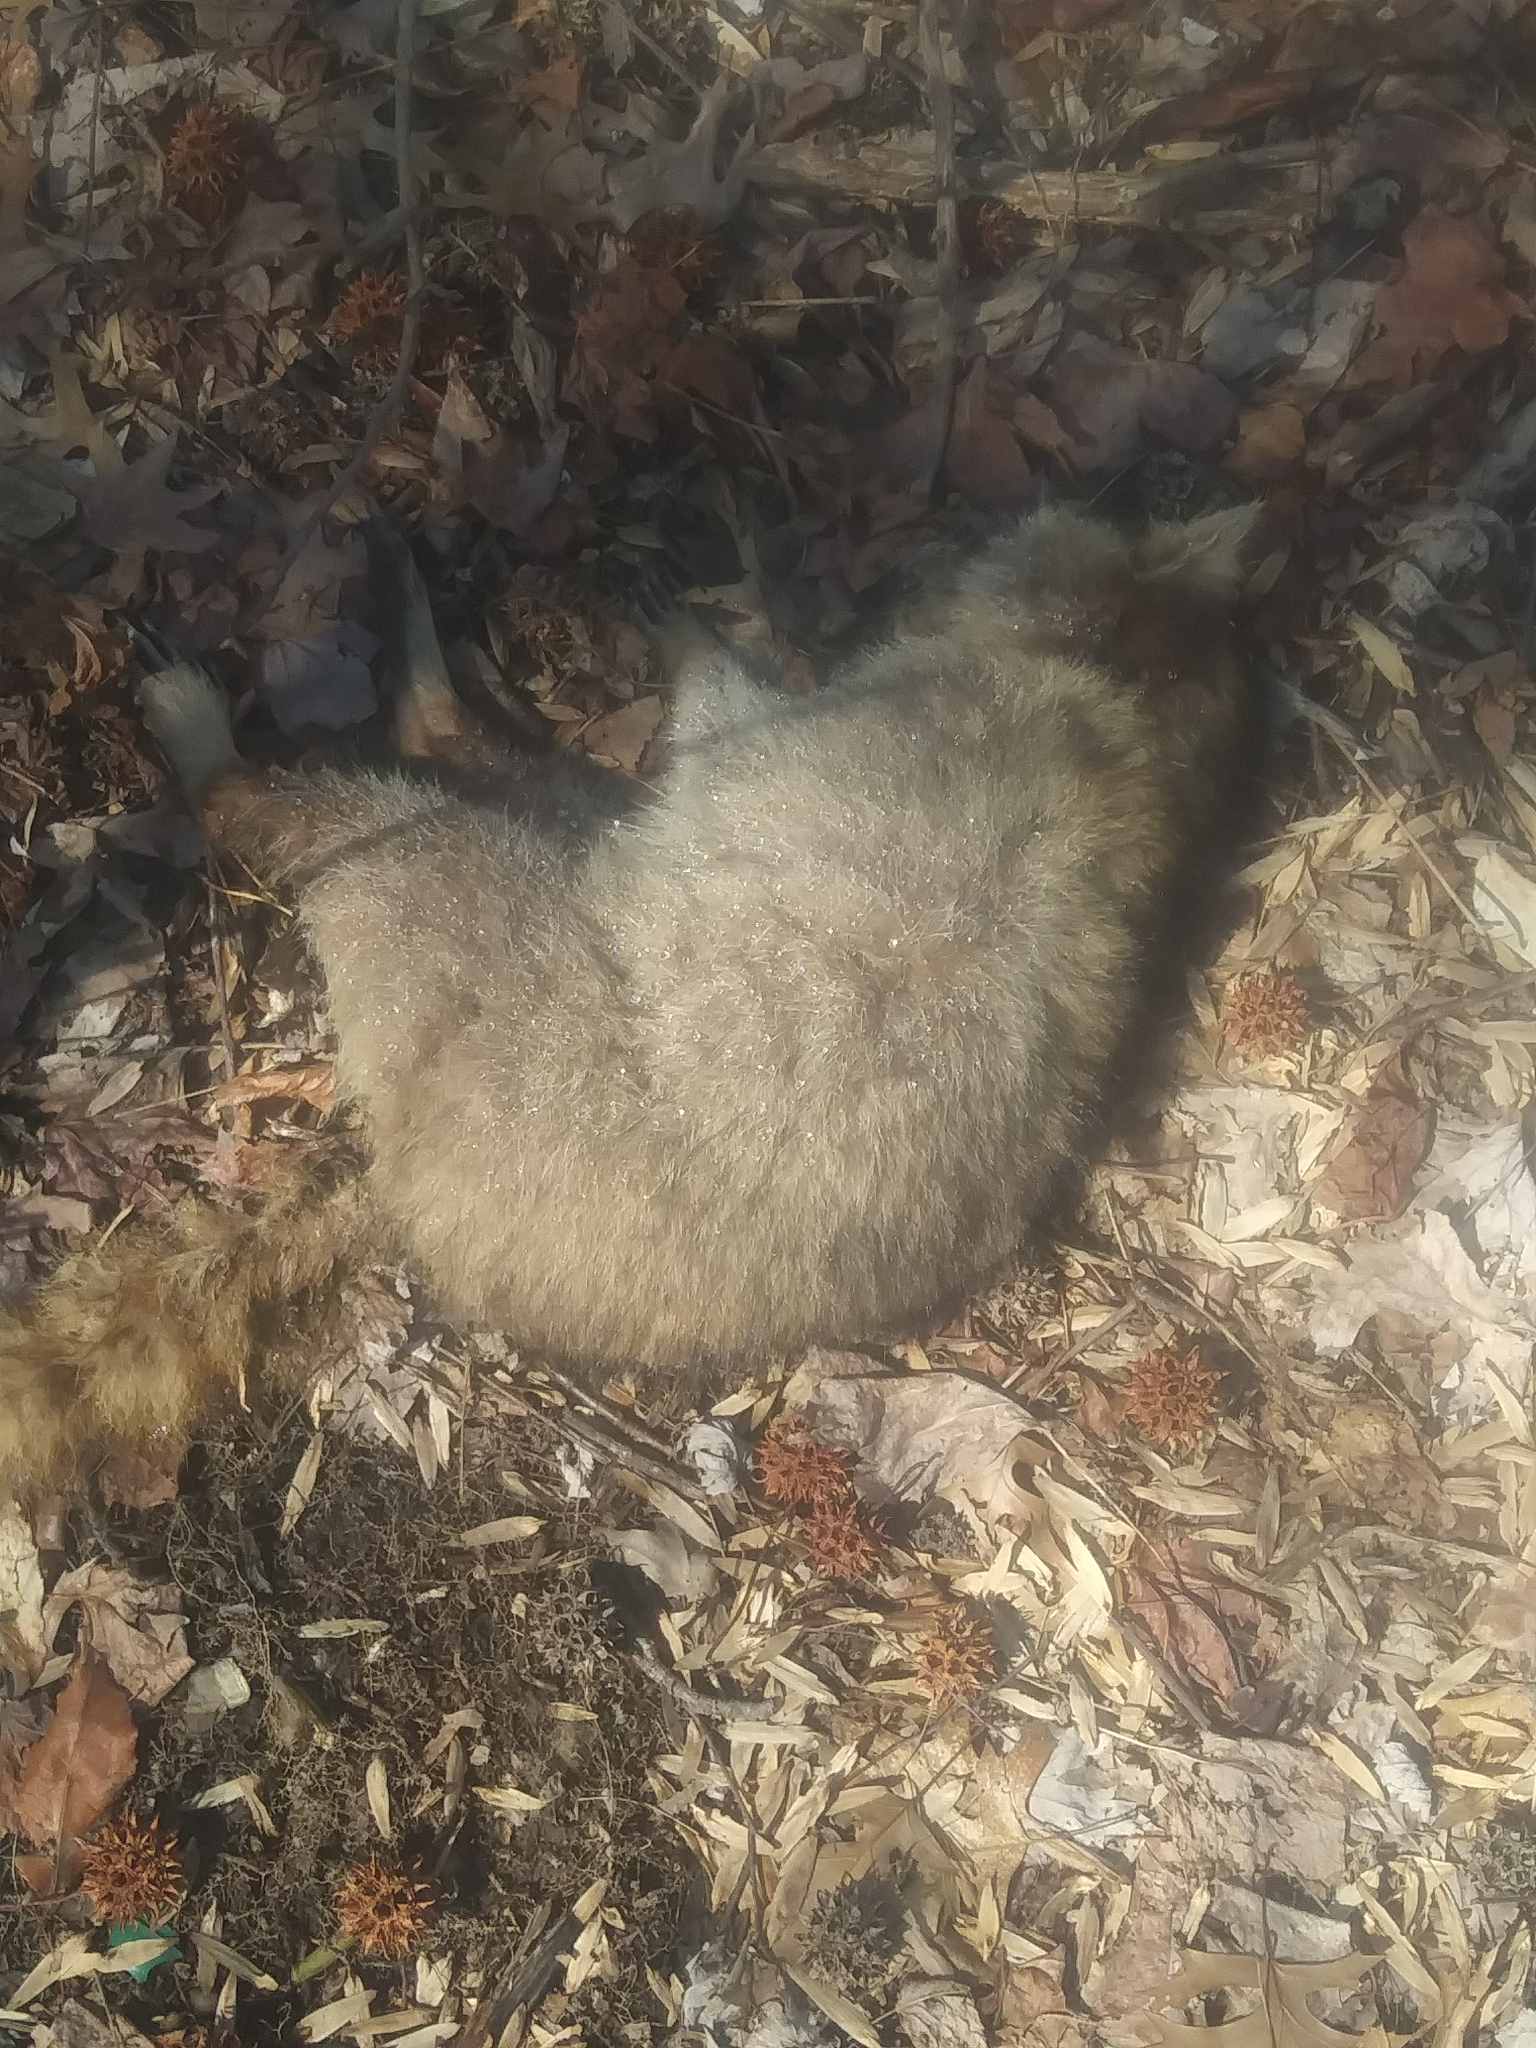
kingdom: Animalia
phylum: Chordata
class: Mammalia
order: Carnivora
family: Procyonidae
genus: Procyon
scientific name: Procyon lotor
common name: Raccoon
